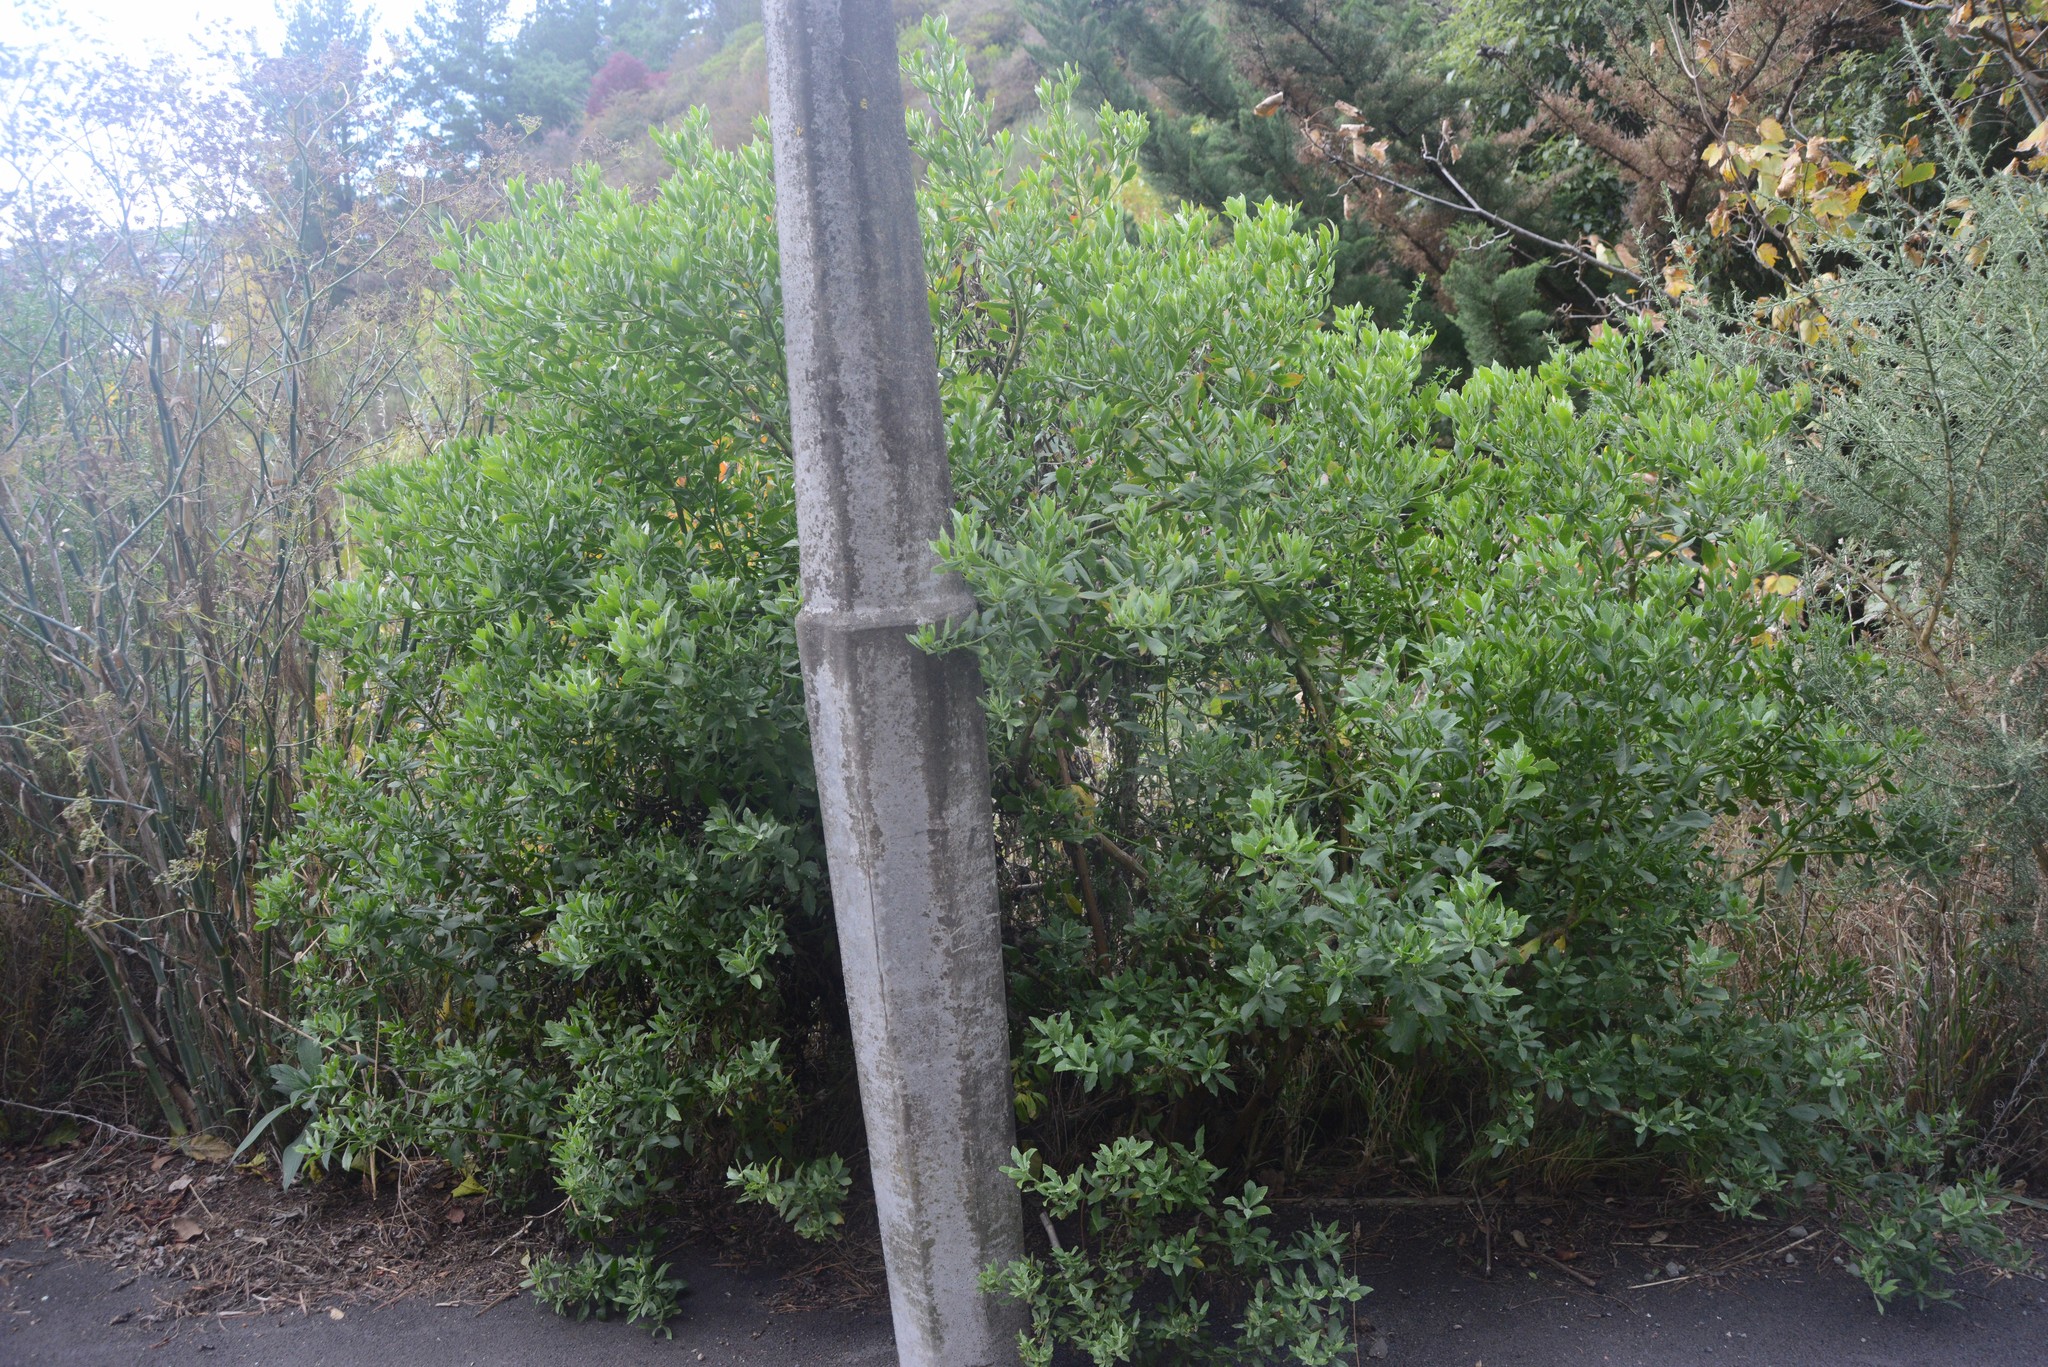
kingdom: Plantae
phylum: Tracheophyta
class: Magnoliopsida
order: Asterales
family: Asteraceae
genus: Osteospermum
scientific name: Osteospermum moniliferum
